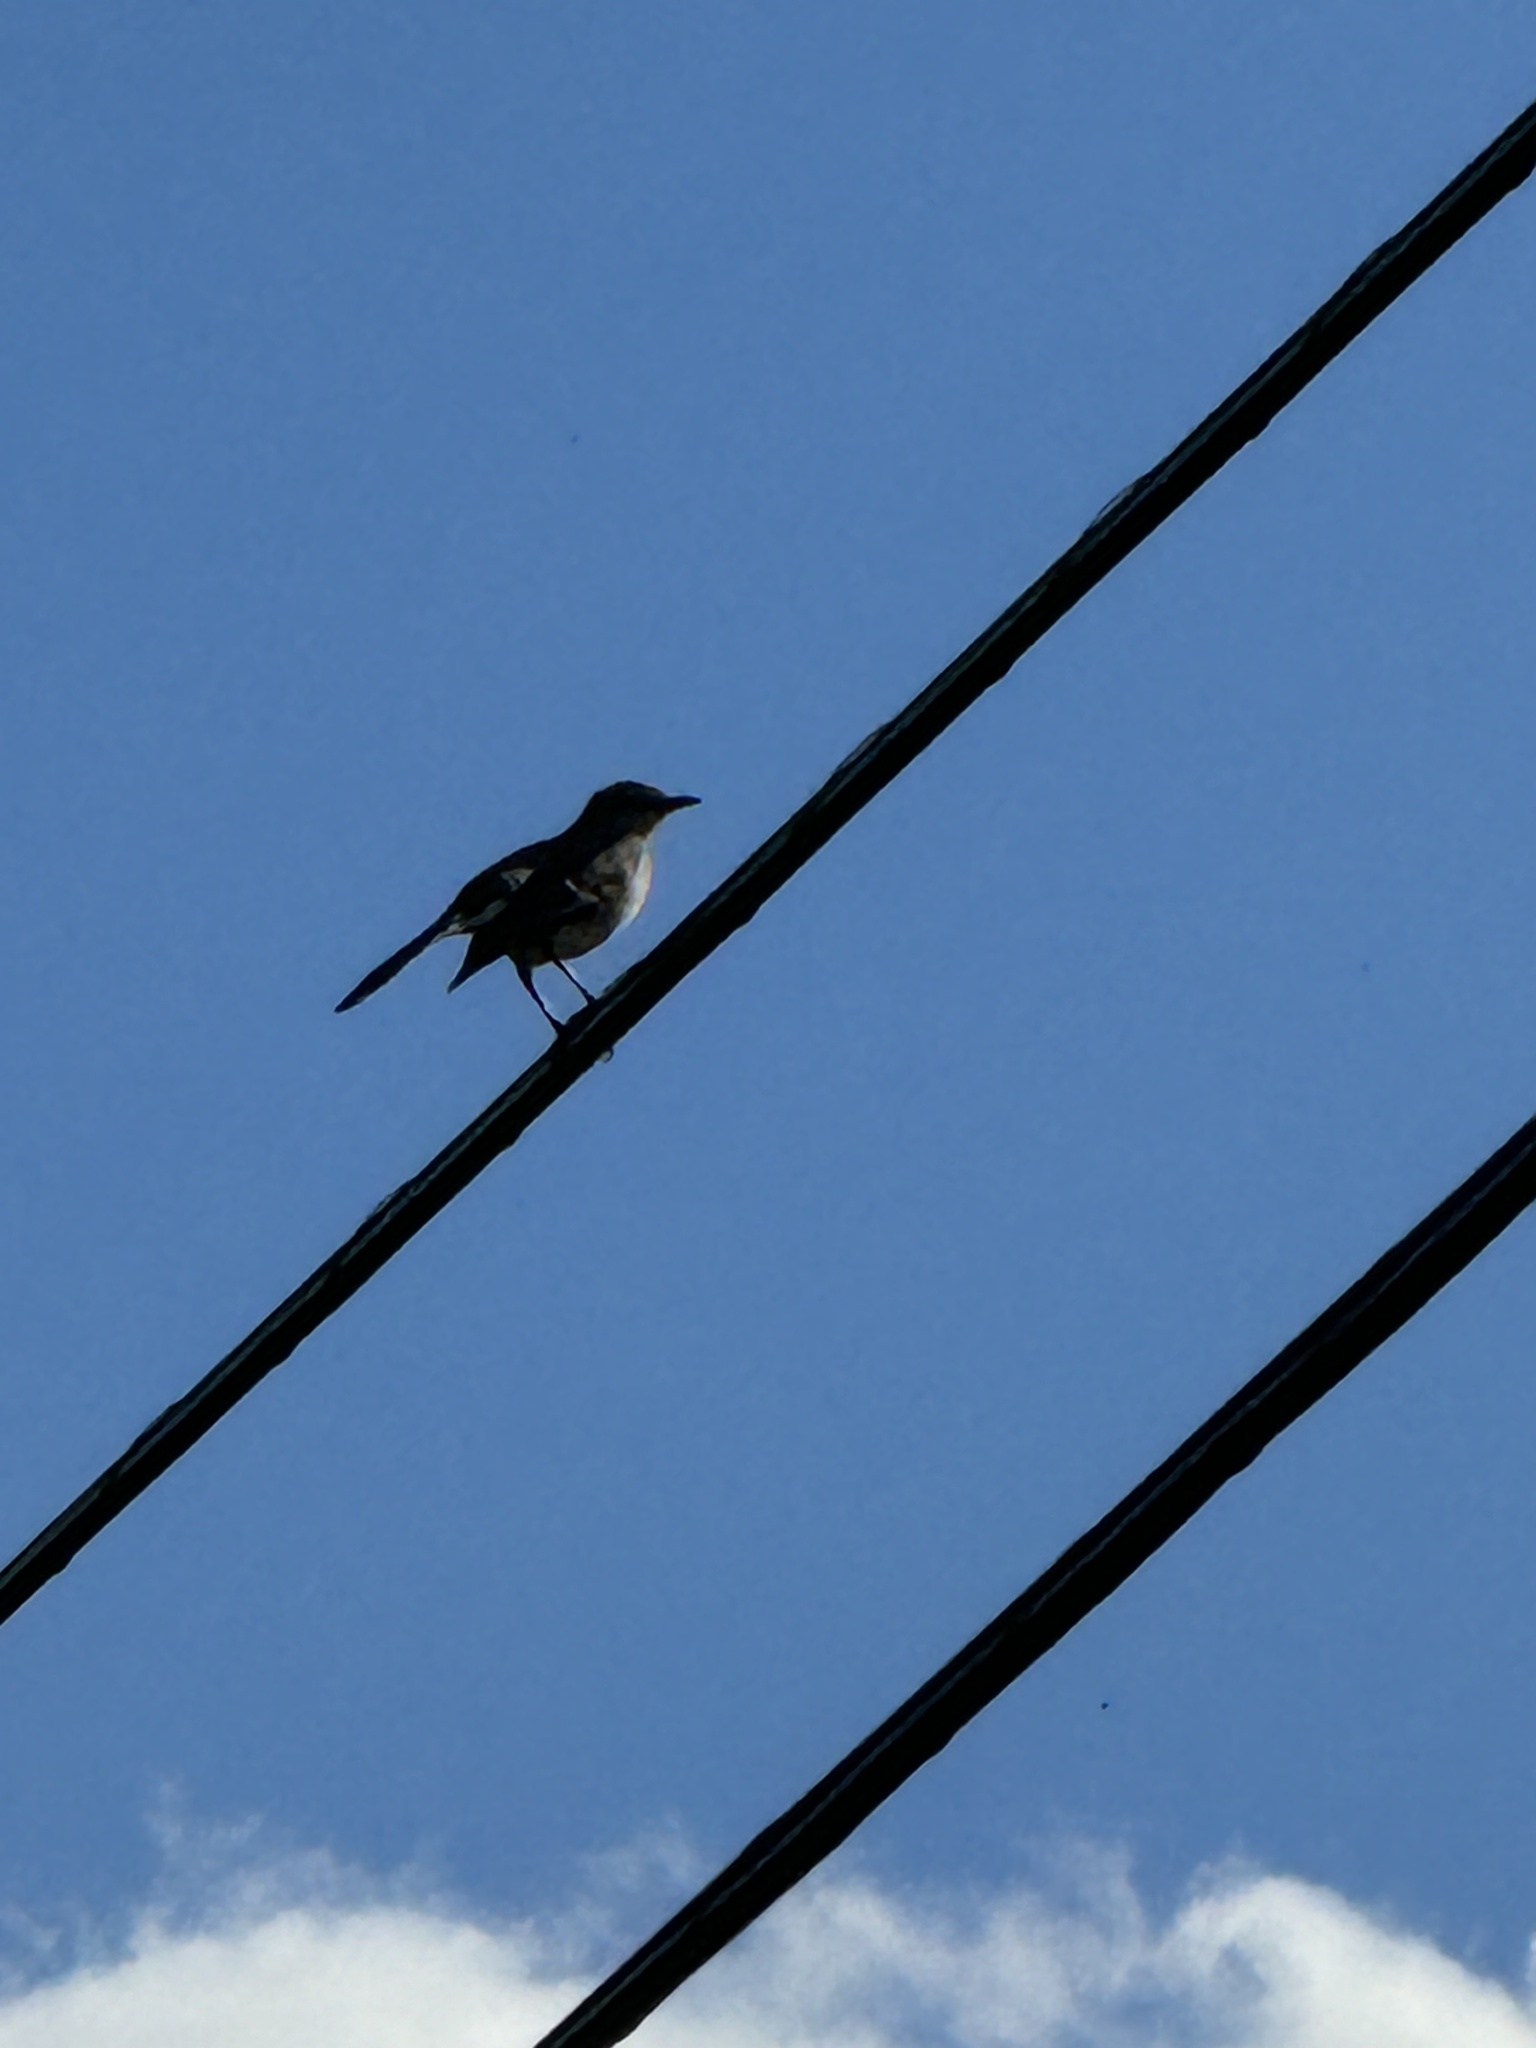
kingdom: Animalia
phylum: Chordata
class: Aves
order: Passeriformes
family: Mimidae
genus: Mimus
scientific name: Mimus polyglottos
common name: Northern mockingbird
